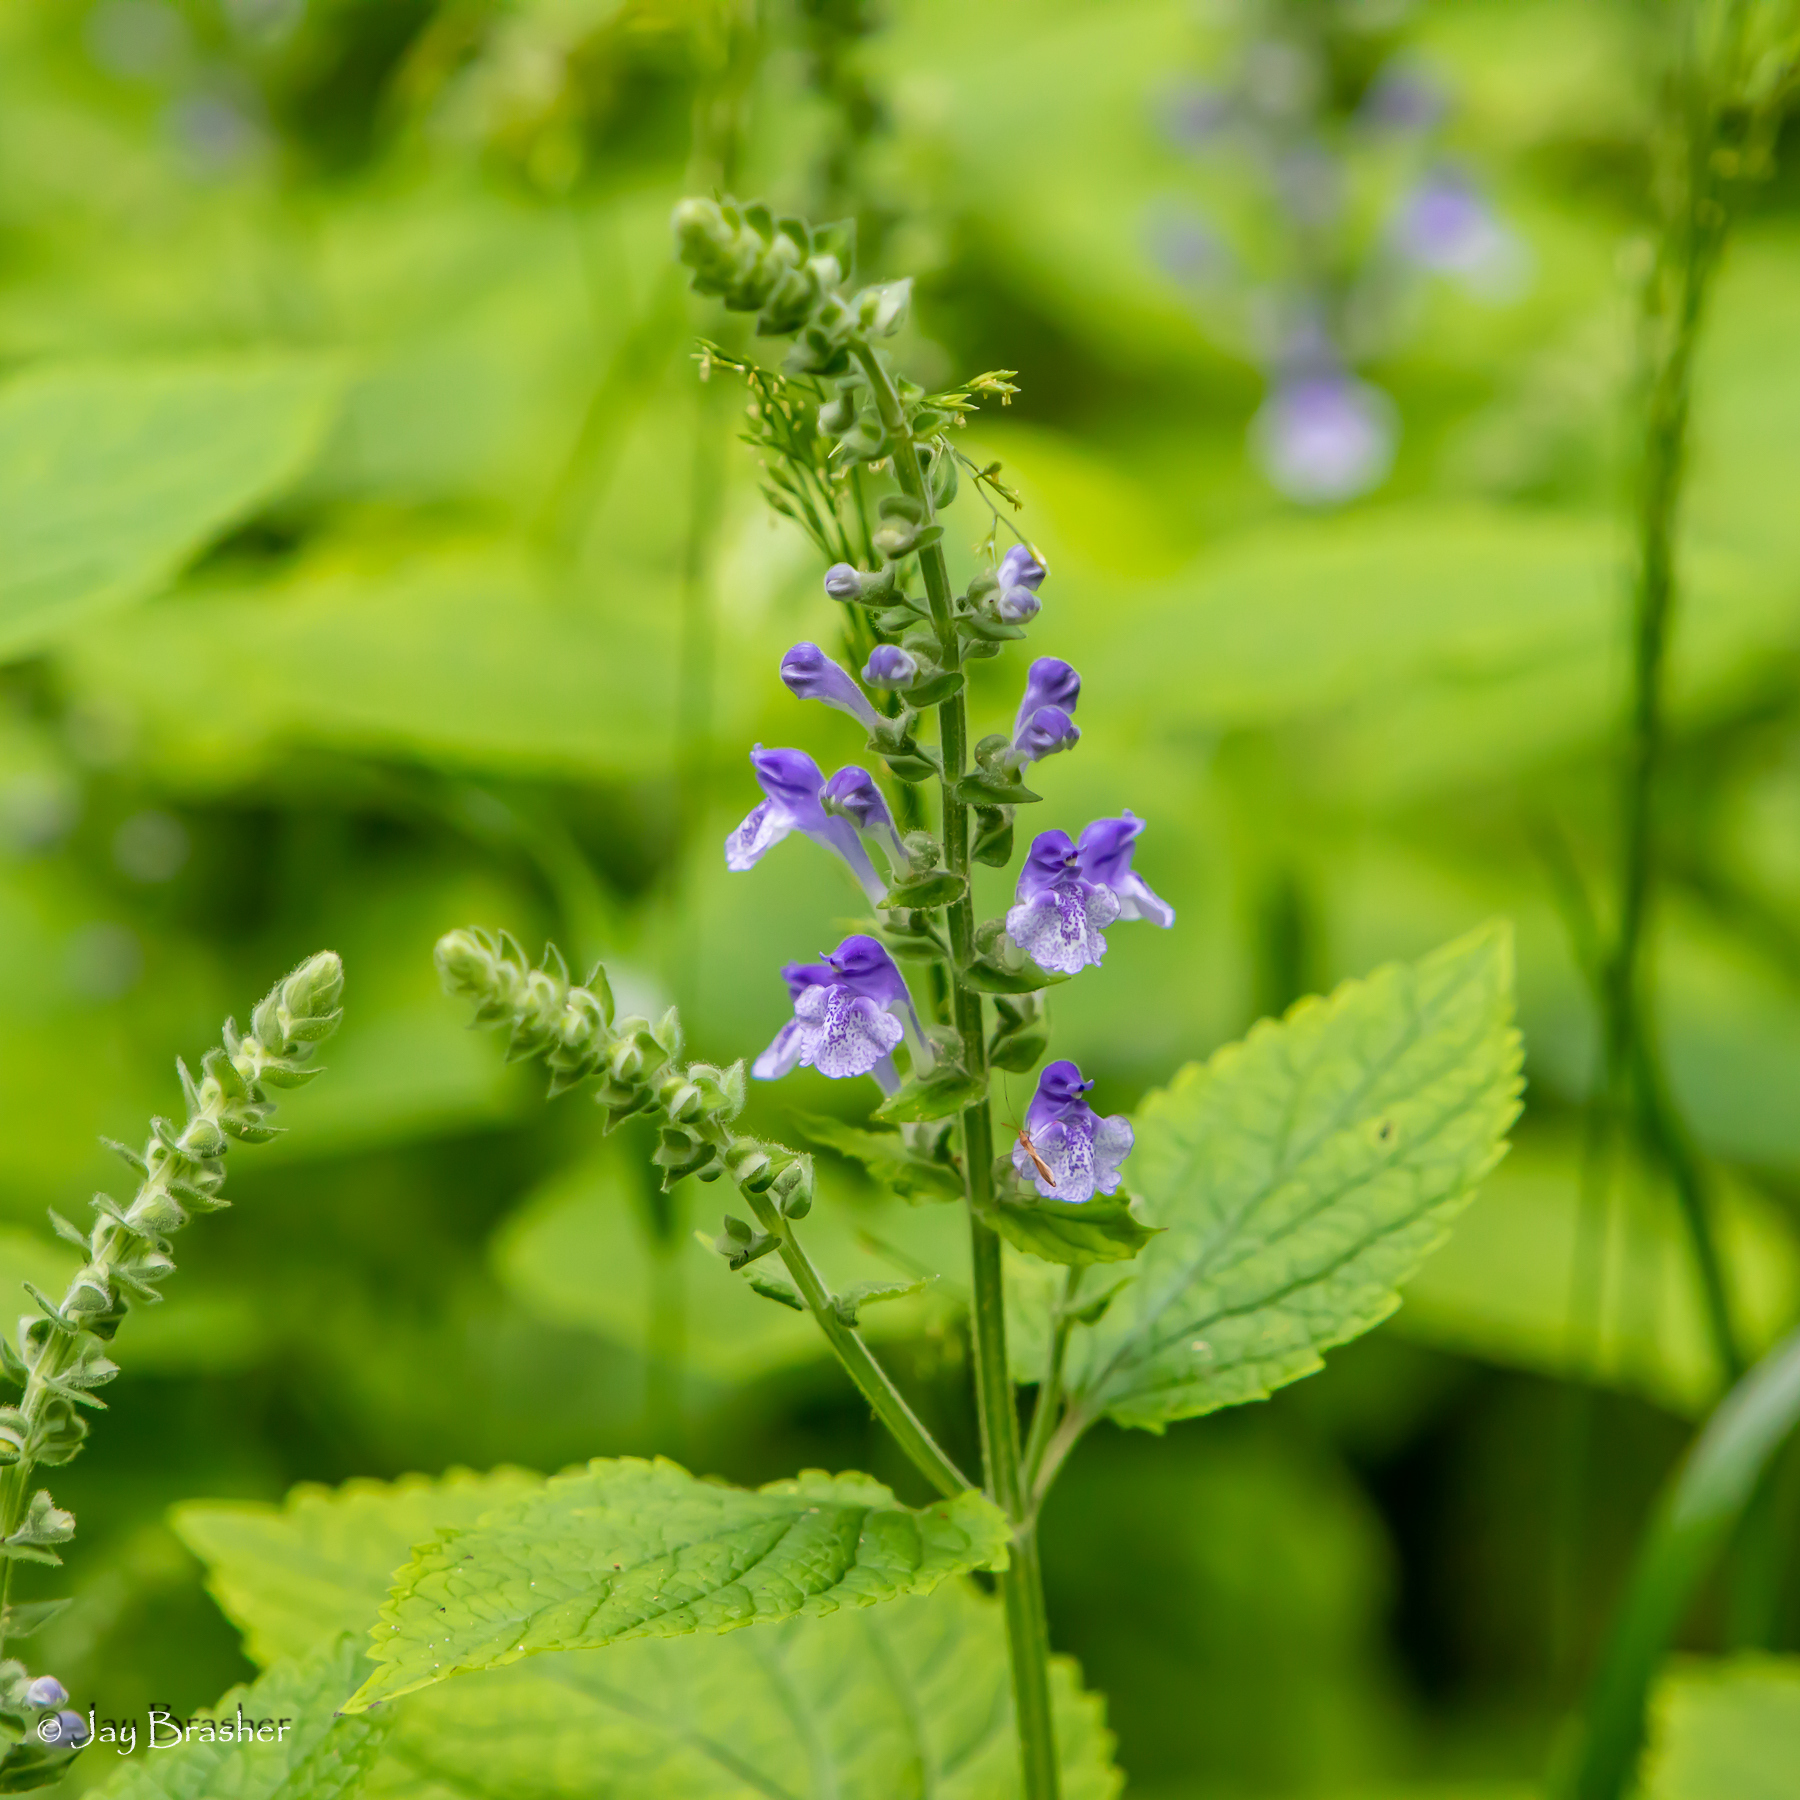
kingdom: Plantae
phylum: Tracheophyta
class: Magnoliopsida
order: Lamiales
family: Lamiaceae
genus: Scutellaria
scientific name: Scutellaria ovata
